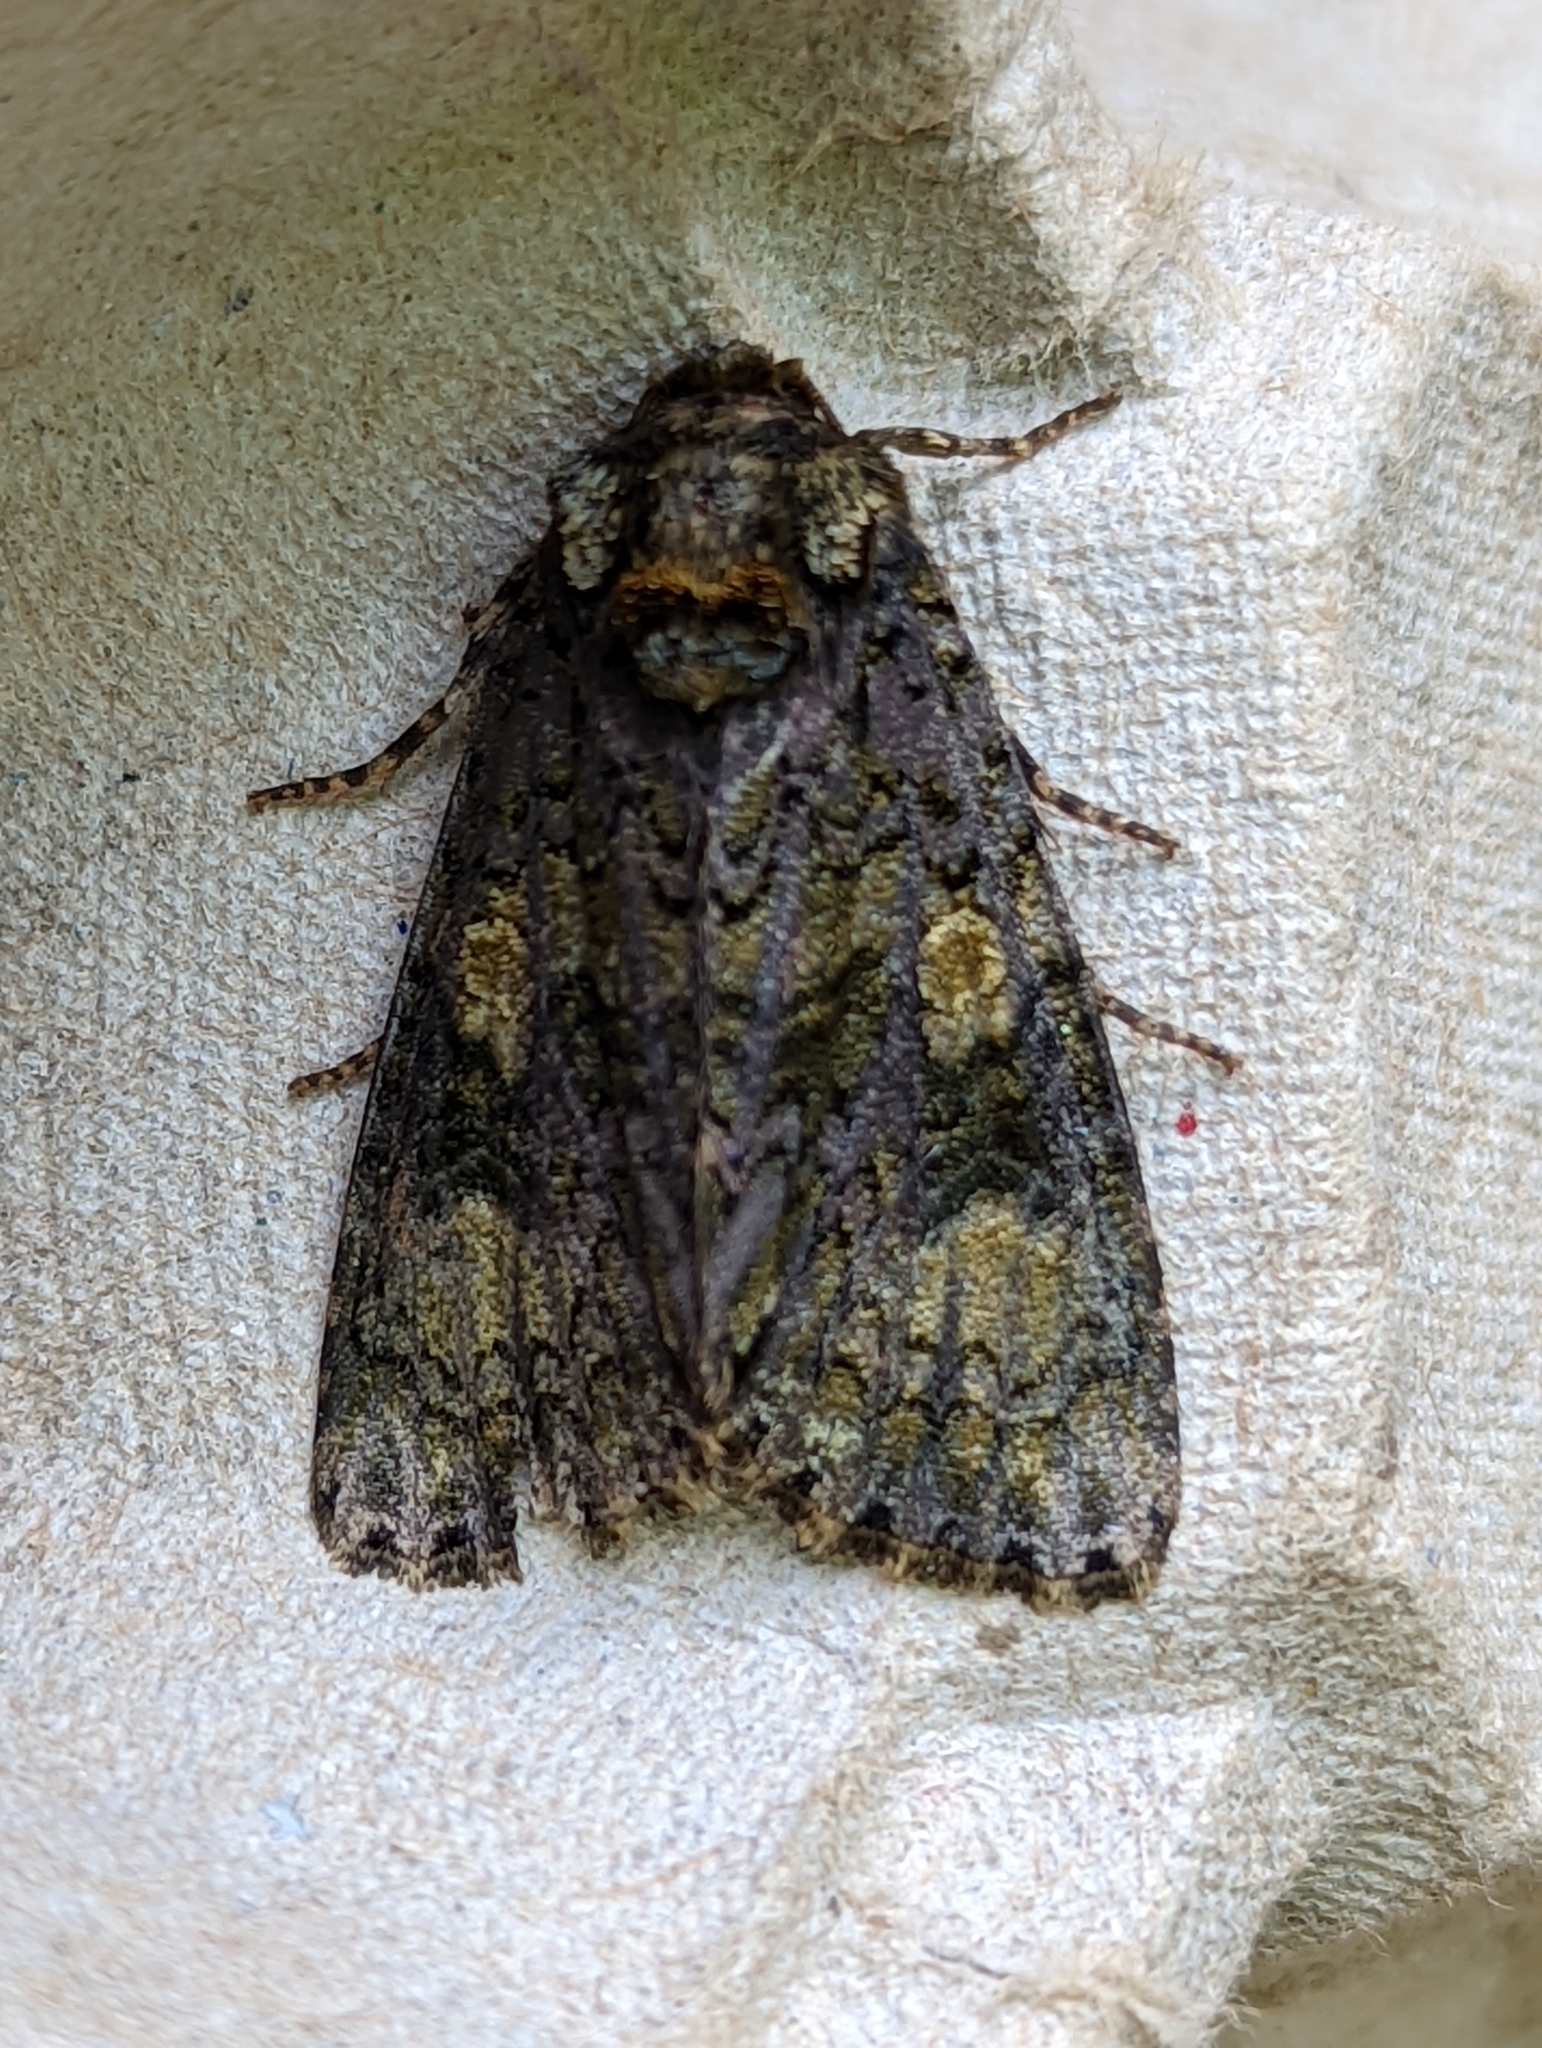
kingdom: Animalia
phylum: Arthropoda
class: Insecta
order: Lepidoptera
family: Noctuidae
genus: Craniophora
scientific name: Craniophora ligustri
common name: Coronet
